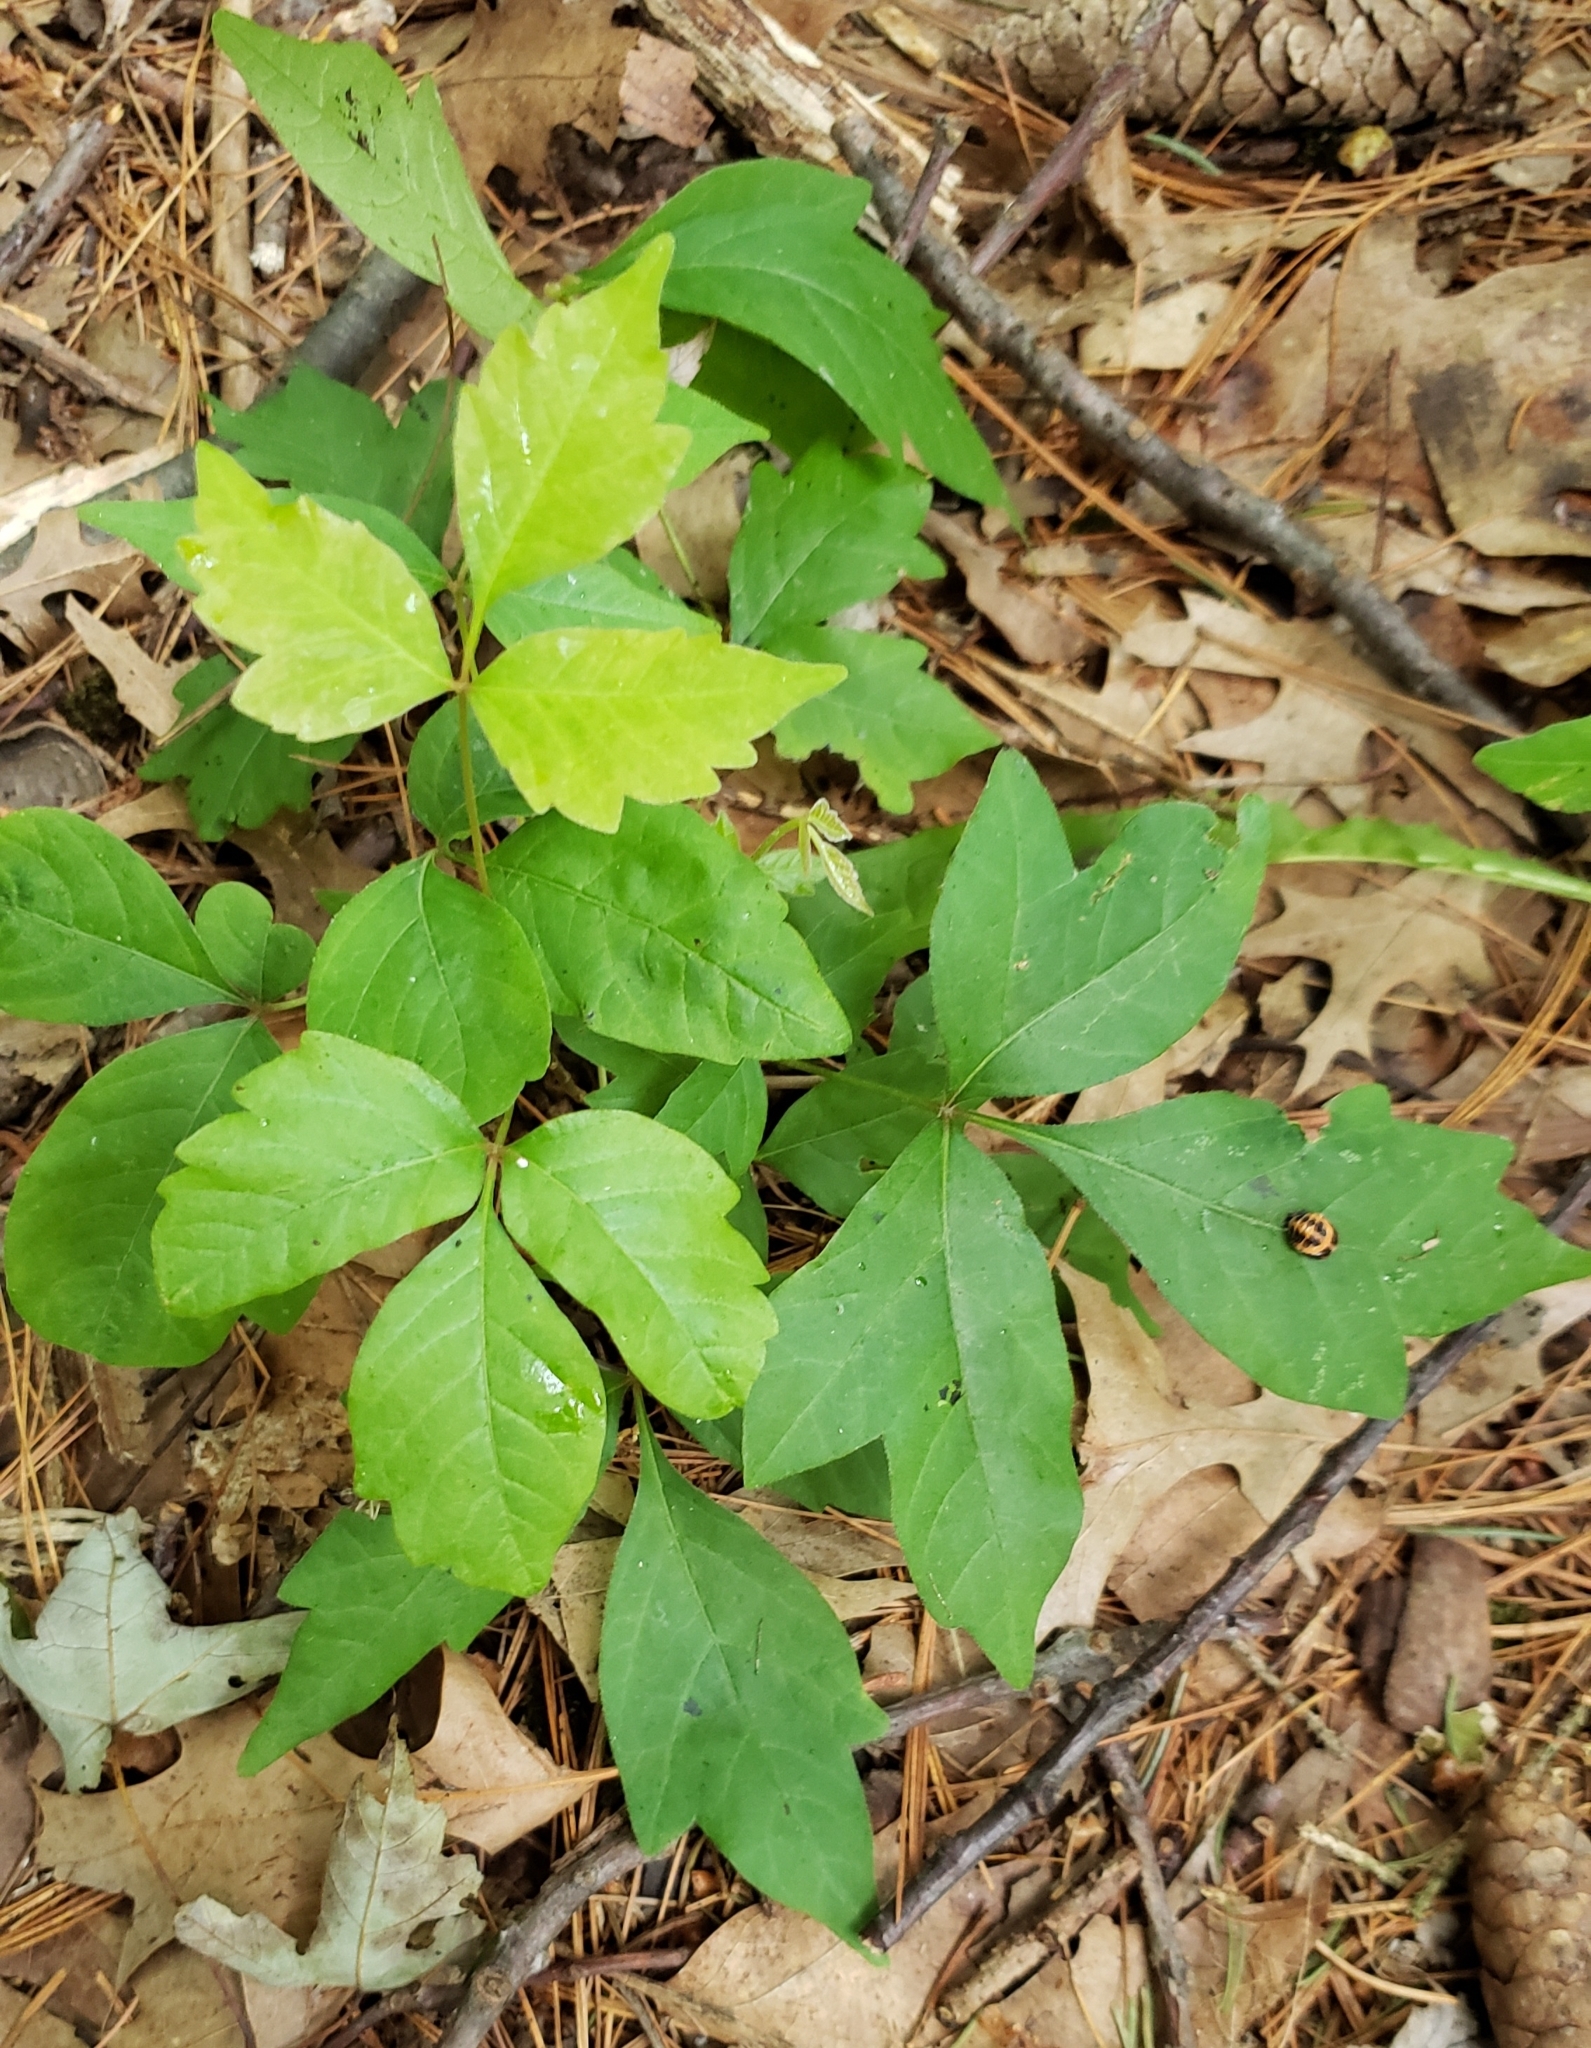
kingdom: Plantae
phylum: Tracheophyta
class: Magnoliopsida
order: Sapindales
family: Anacardiaceae
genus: Toxicodendron
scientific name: Toxicodendron radicans
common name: Poison ivy
